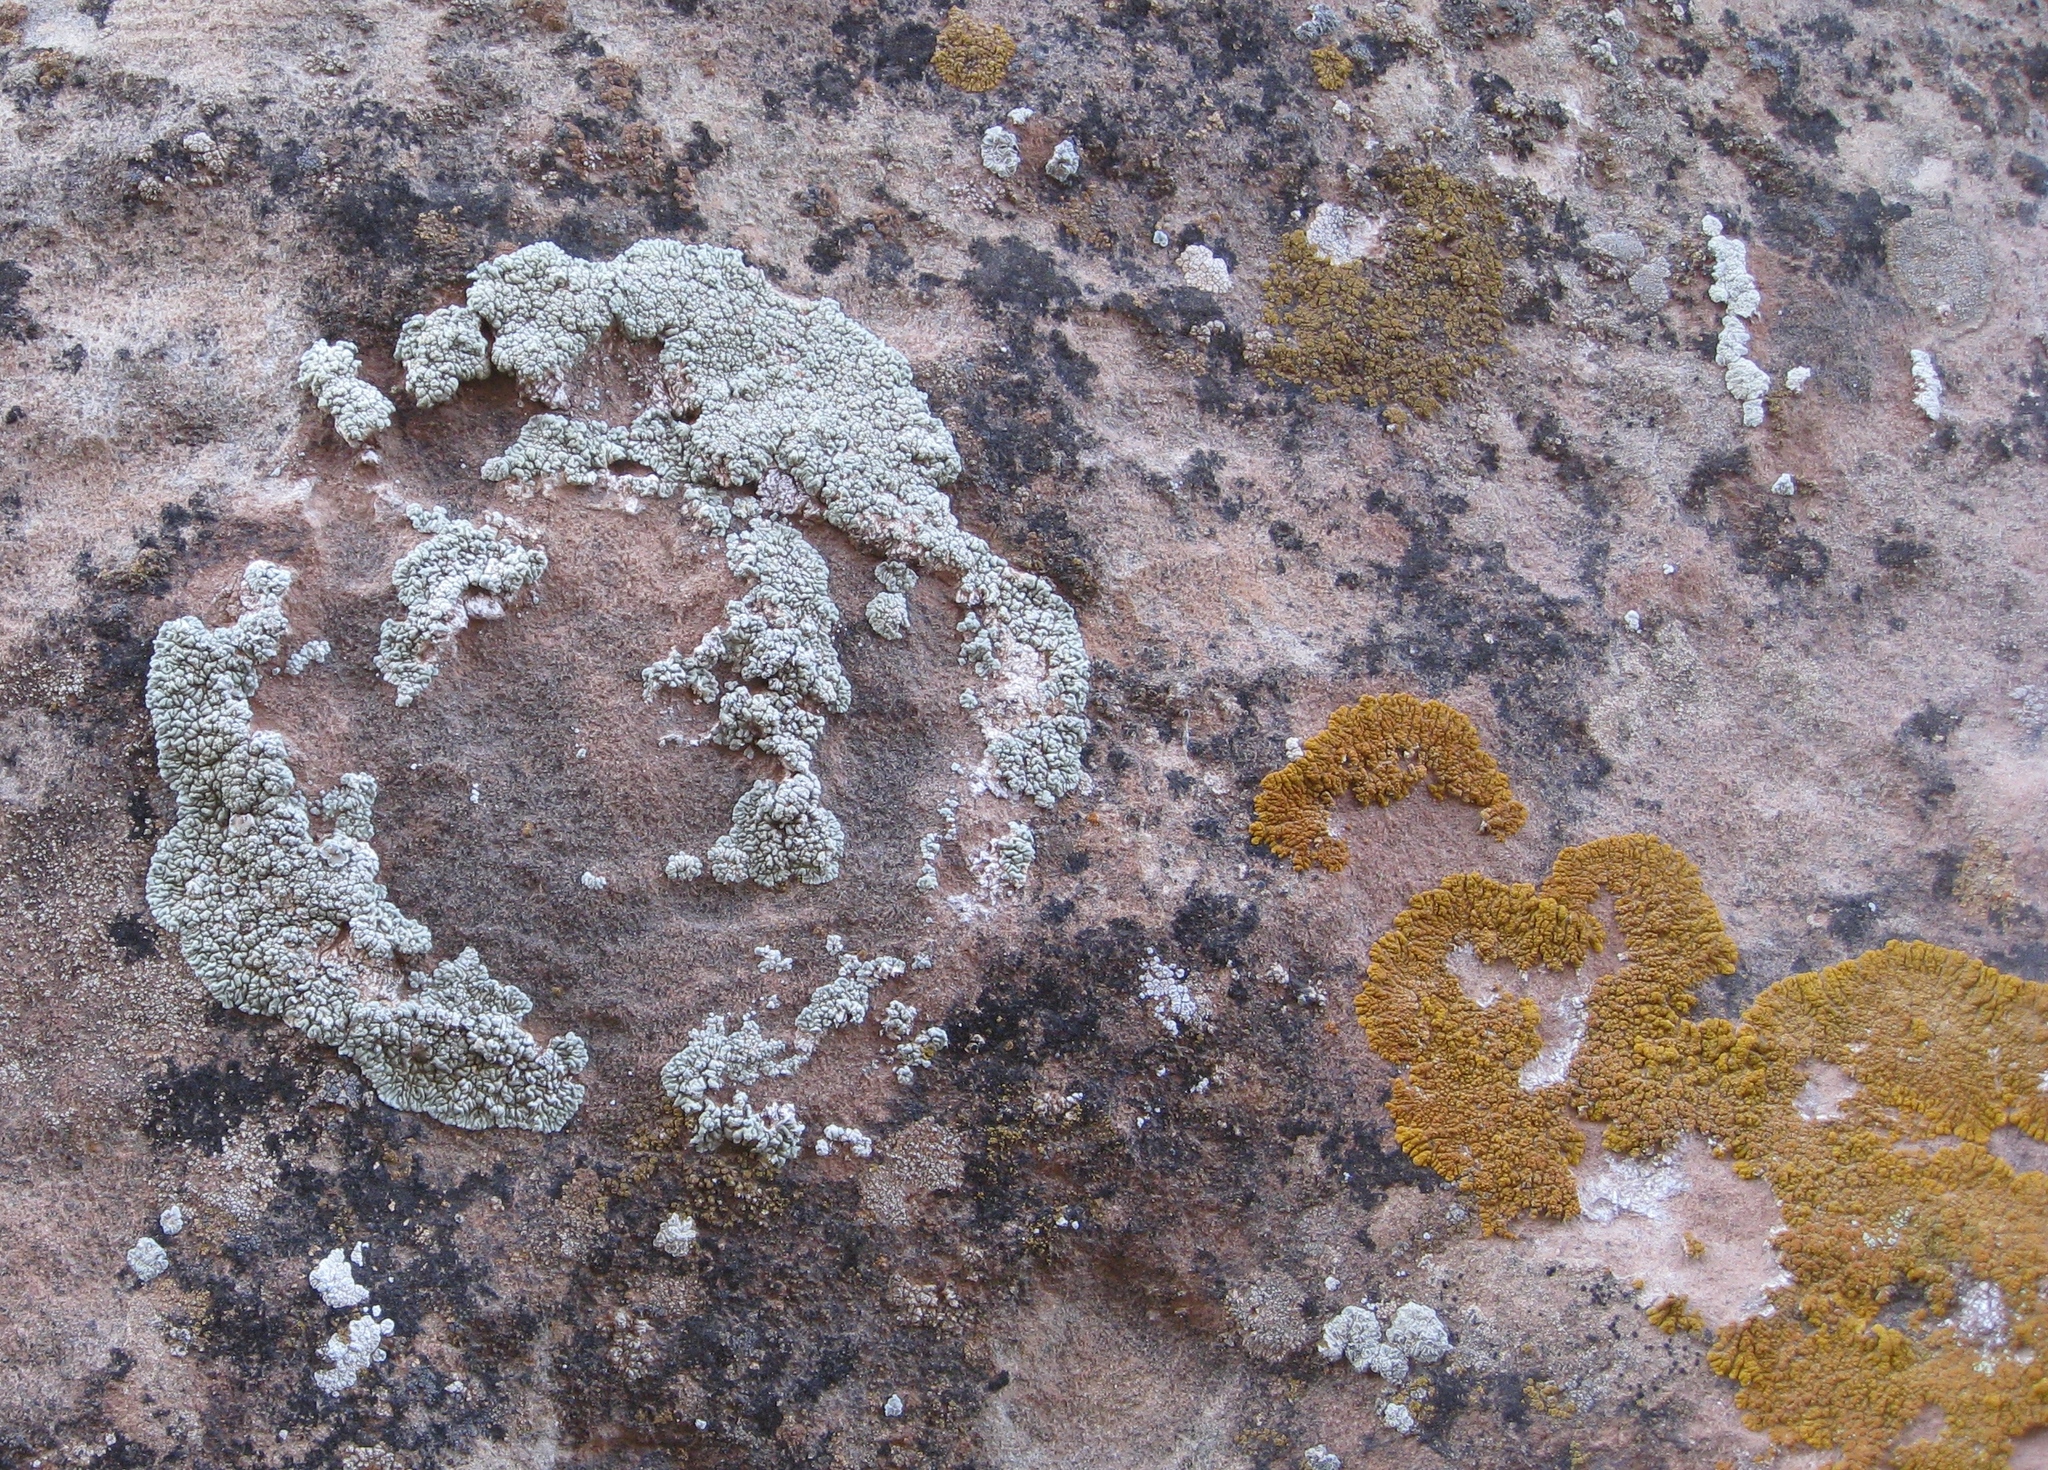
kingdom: Fungi
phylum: Ascomycota
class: Lecanoromycetes
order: Teloschistales
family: Teloschistaceae
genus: Golubkovia
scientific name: Golubkovia trachyphylla
